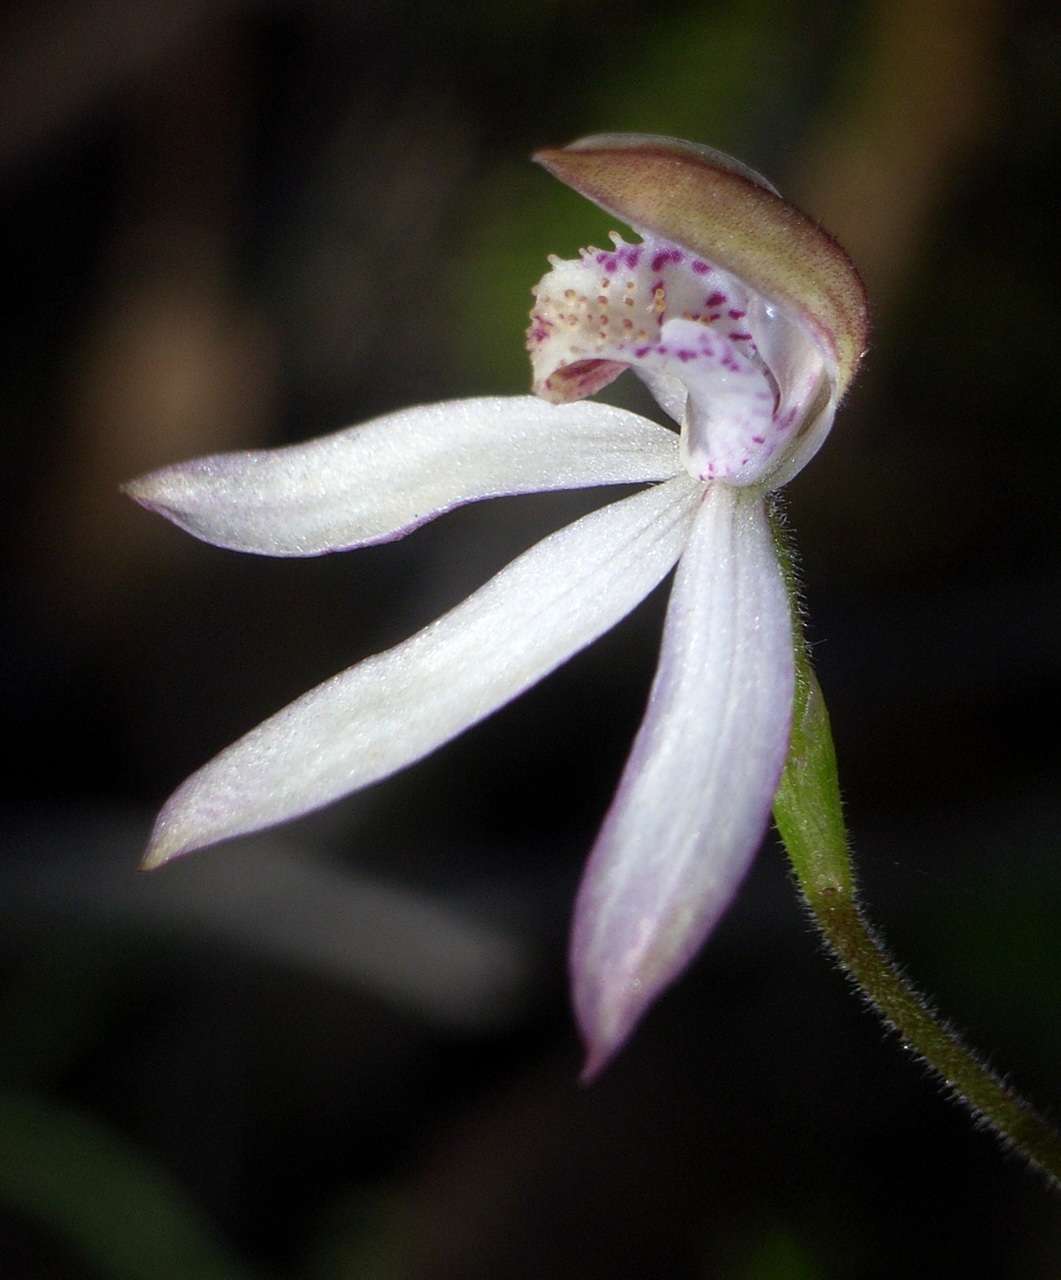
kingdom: Plantae
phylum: Tracheophyta
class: Liliopsida
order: Asparagales
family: Orchidaceae
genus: Caladenia
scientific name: Caladenia moschata
